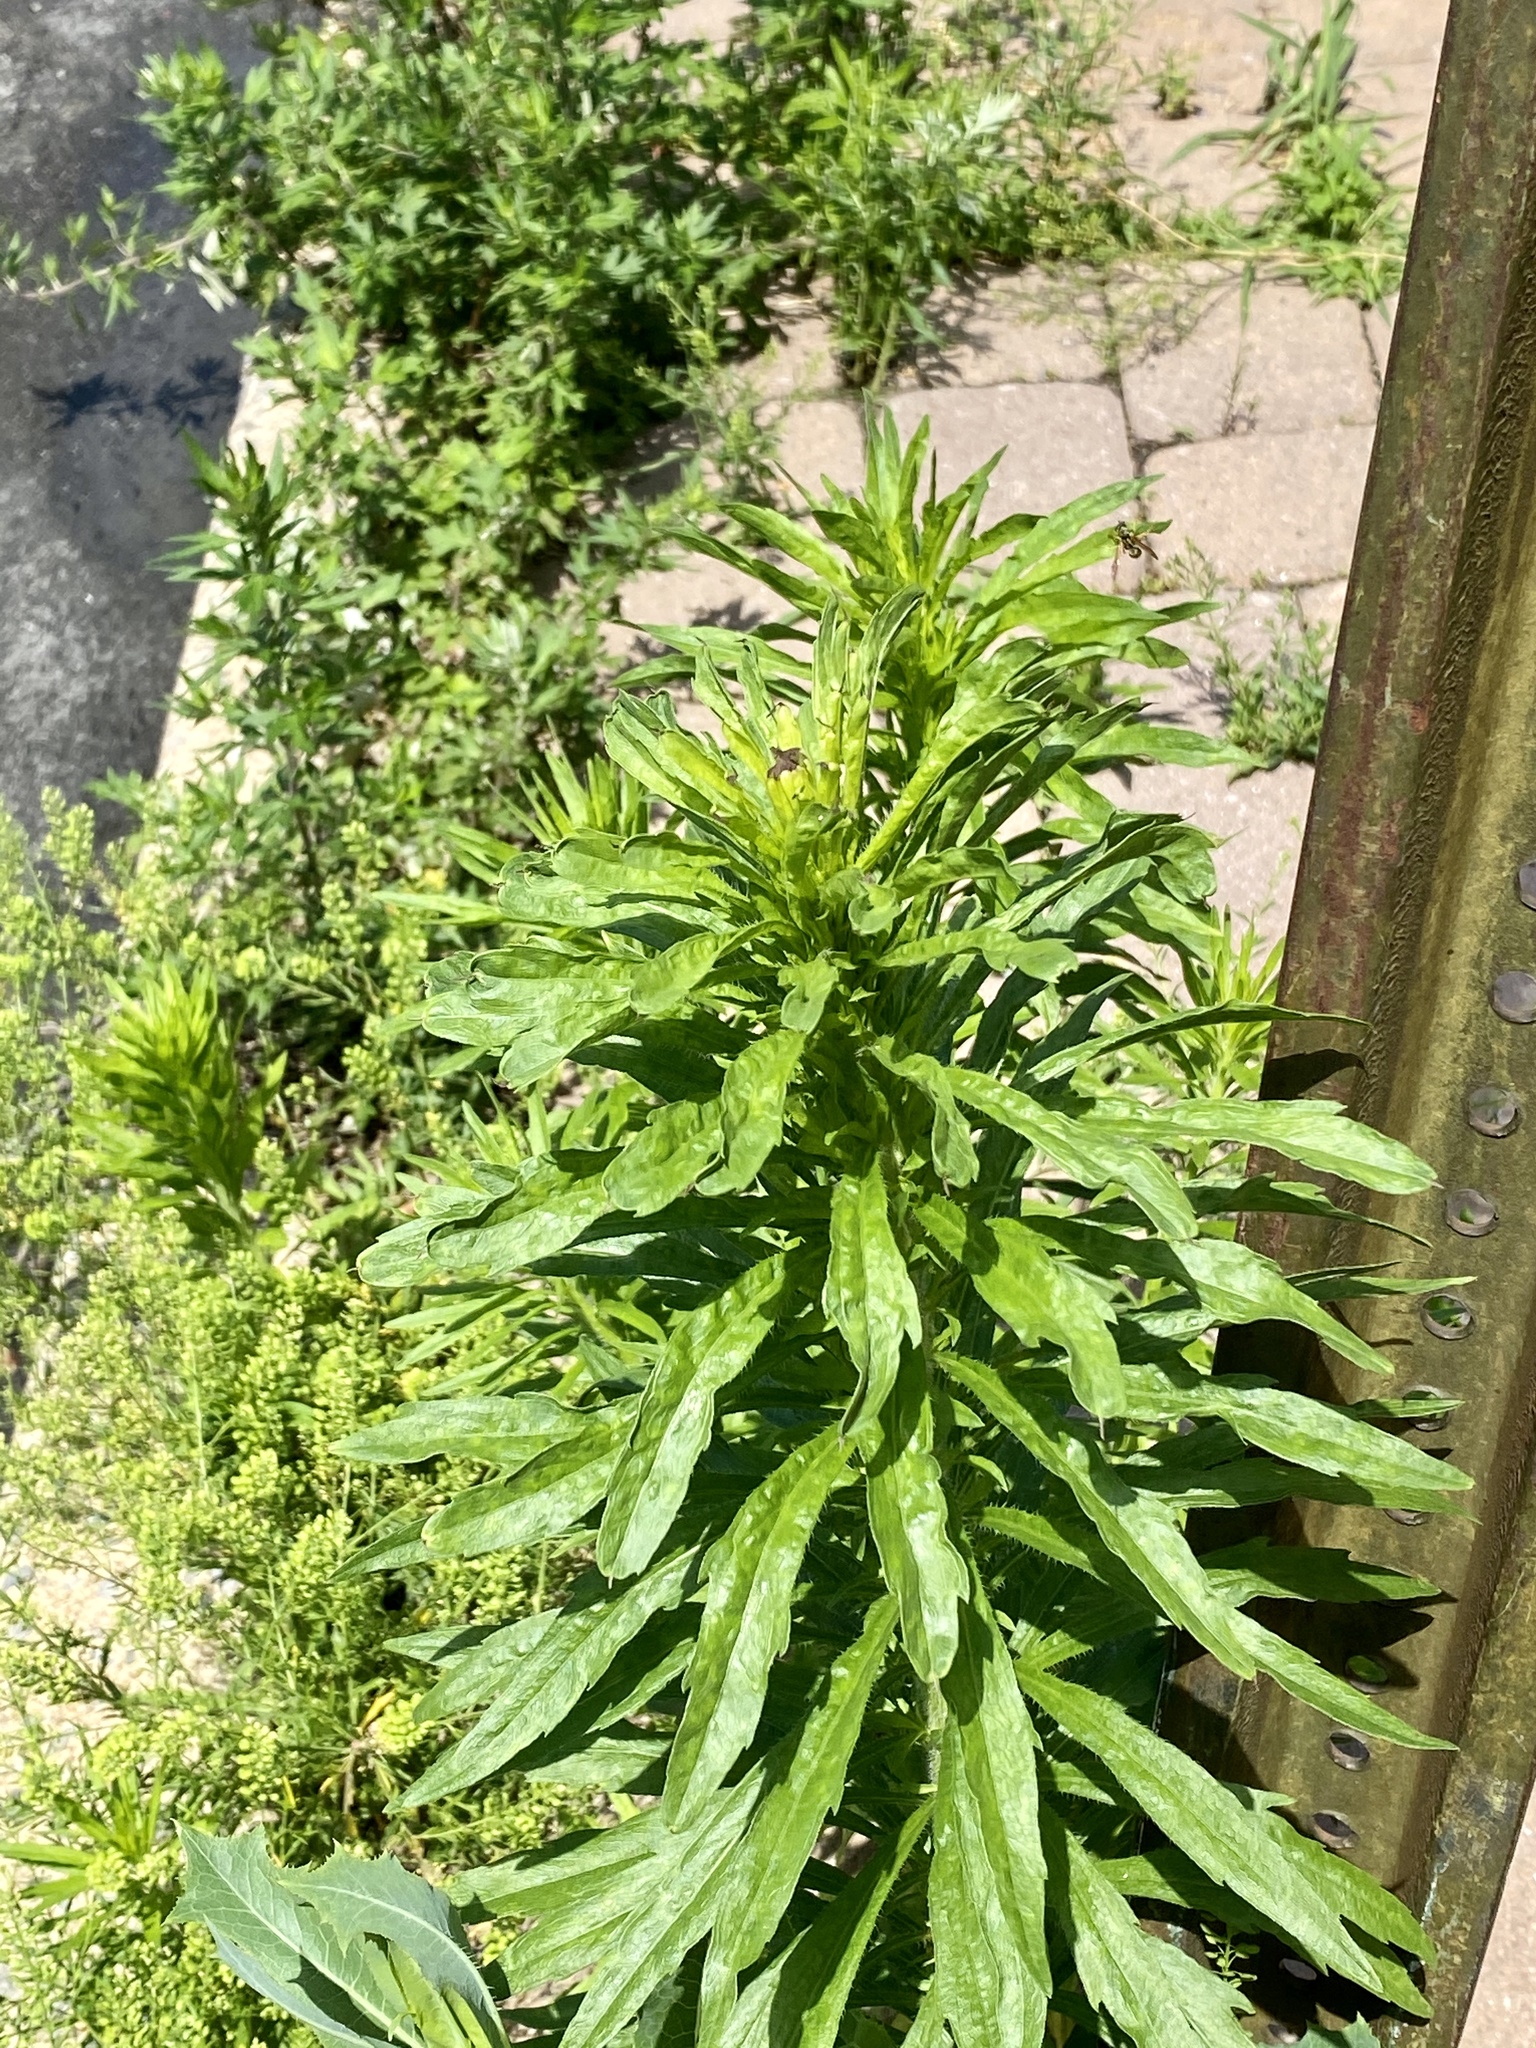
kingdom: Plantae
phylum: Tracheophyta
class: Magnoliopsida
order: Asterales
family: Asteraceae
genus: Erigeron
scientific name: Erigeron canadensis
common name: Canadian fleabane
